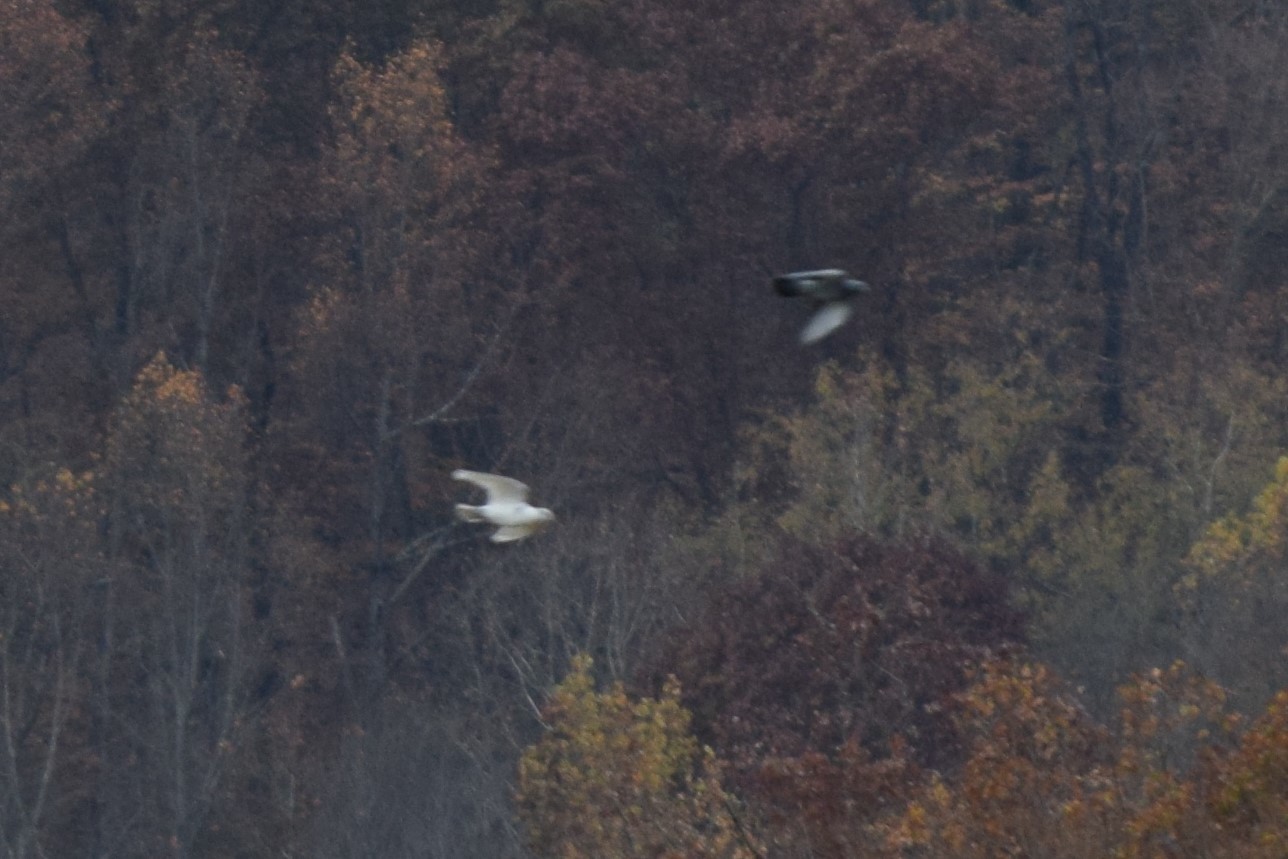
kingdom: Animalia
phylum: Chordata
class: Aves
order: Columbiformes
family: Columbidae
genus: Columba
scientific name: Columba livia
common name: Rock pigeon
